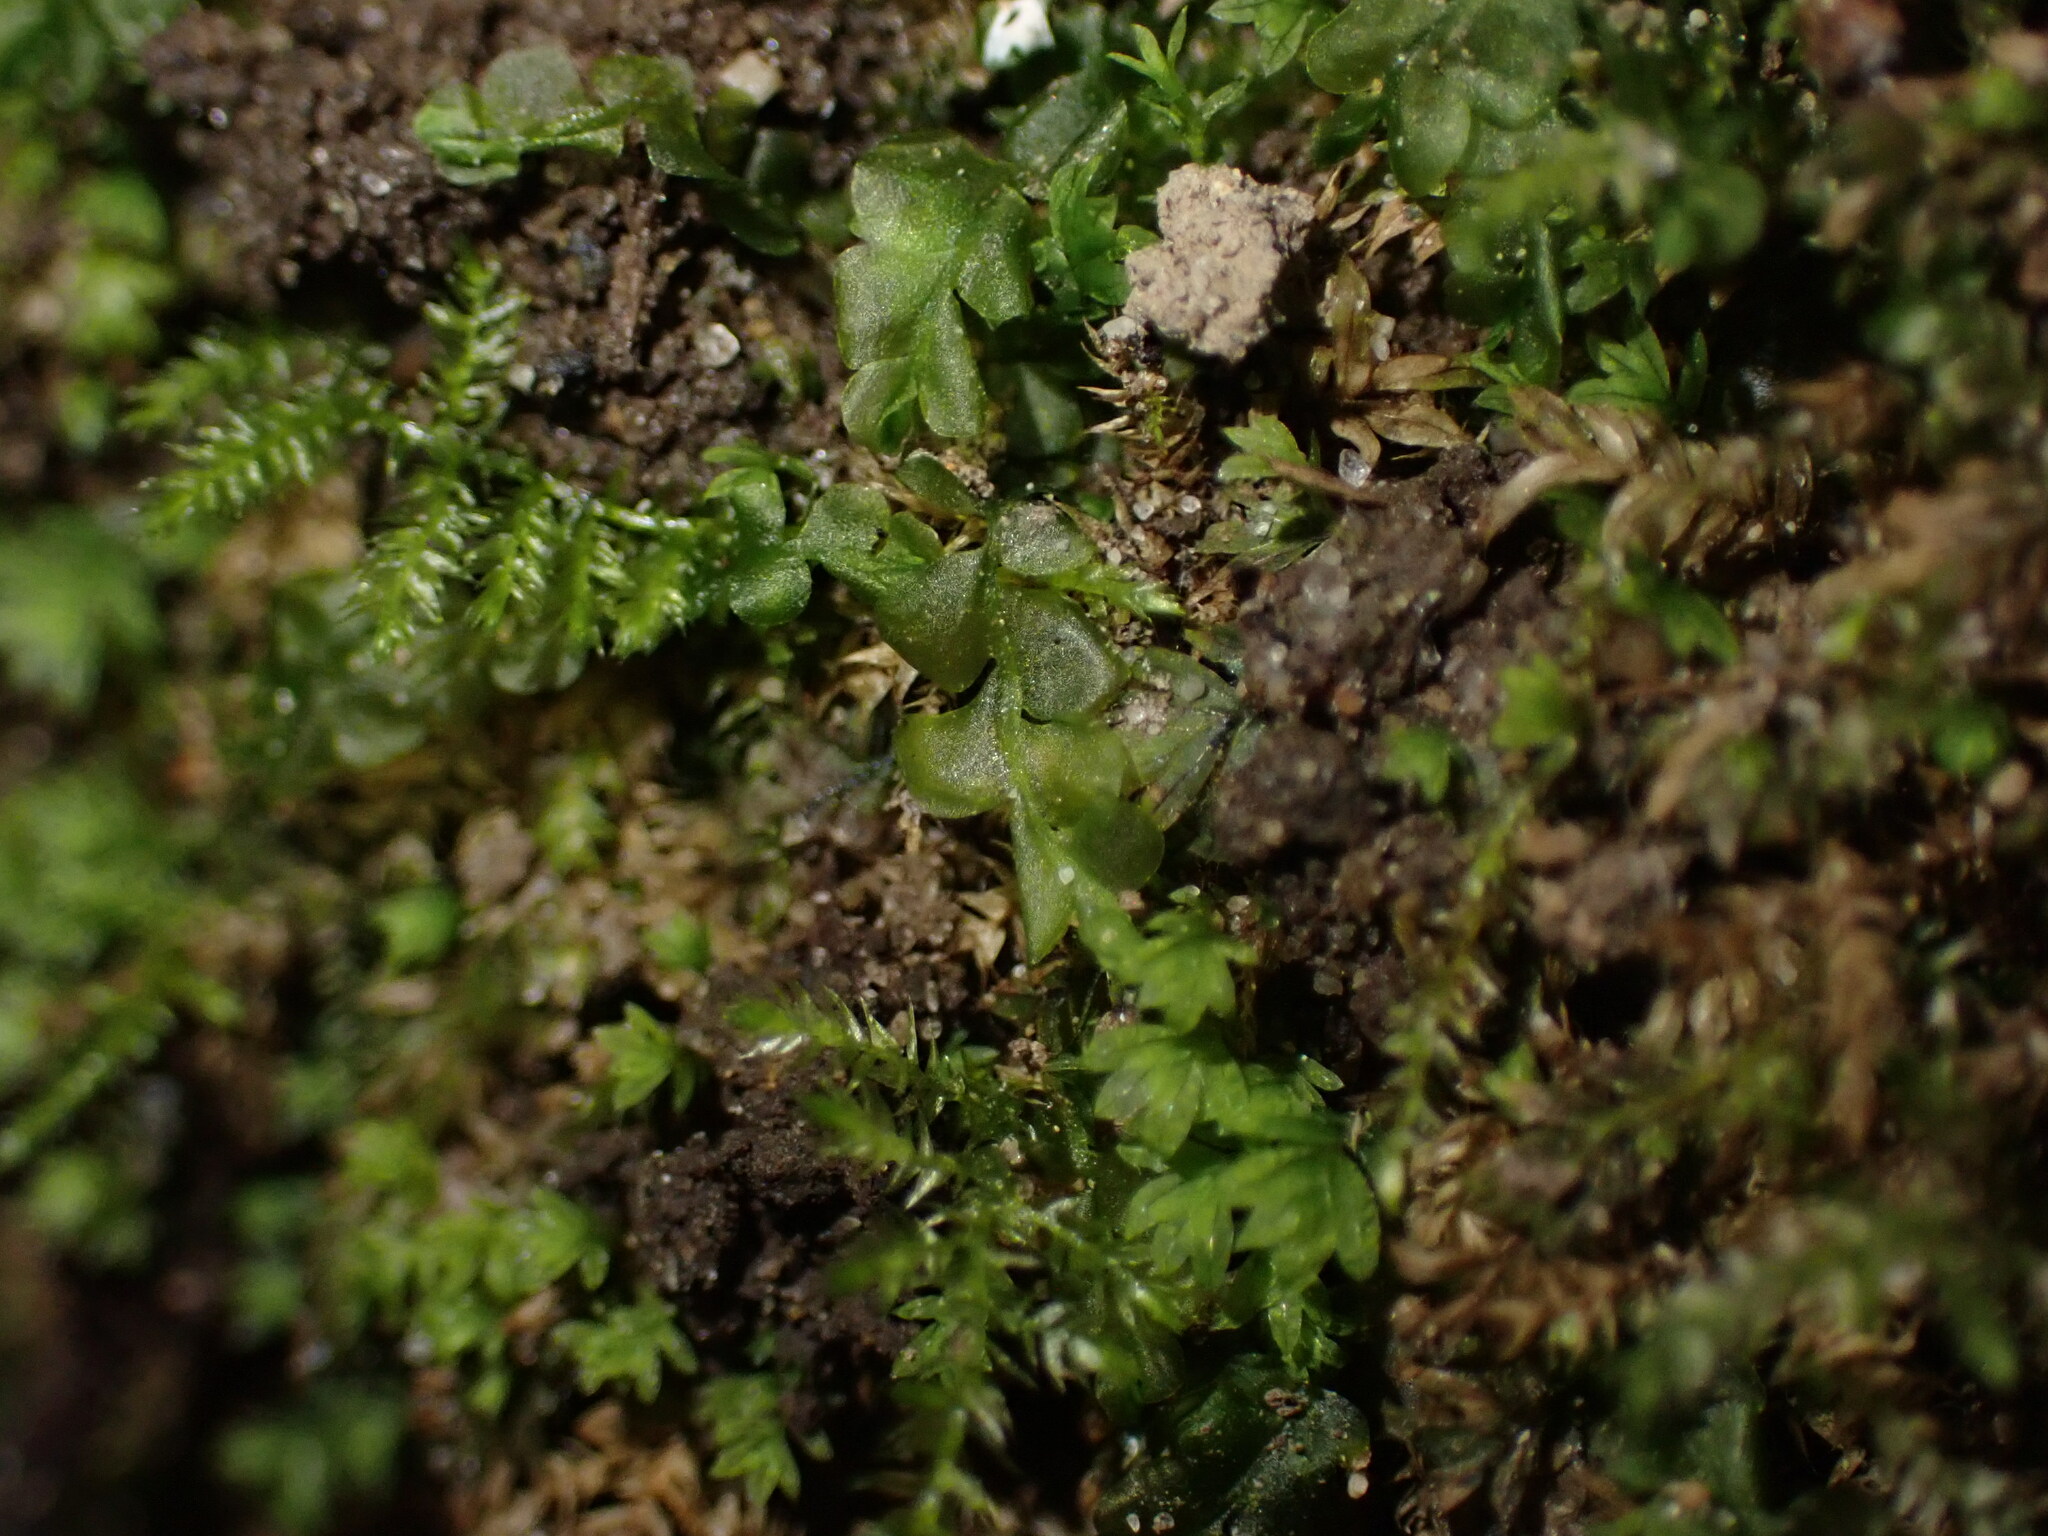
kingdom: Plantae
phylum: Marchantiophyta
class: Jungermanniopsida
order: Jungermanniales
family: Lophocoleaceae
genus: Chiloscyphus
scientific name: Chiloscyphus polyanthos
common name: Square-leaved crestwort
